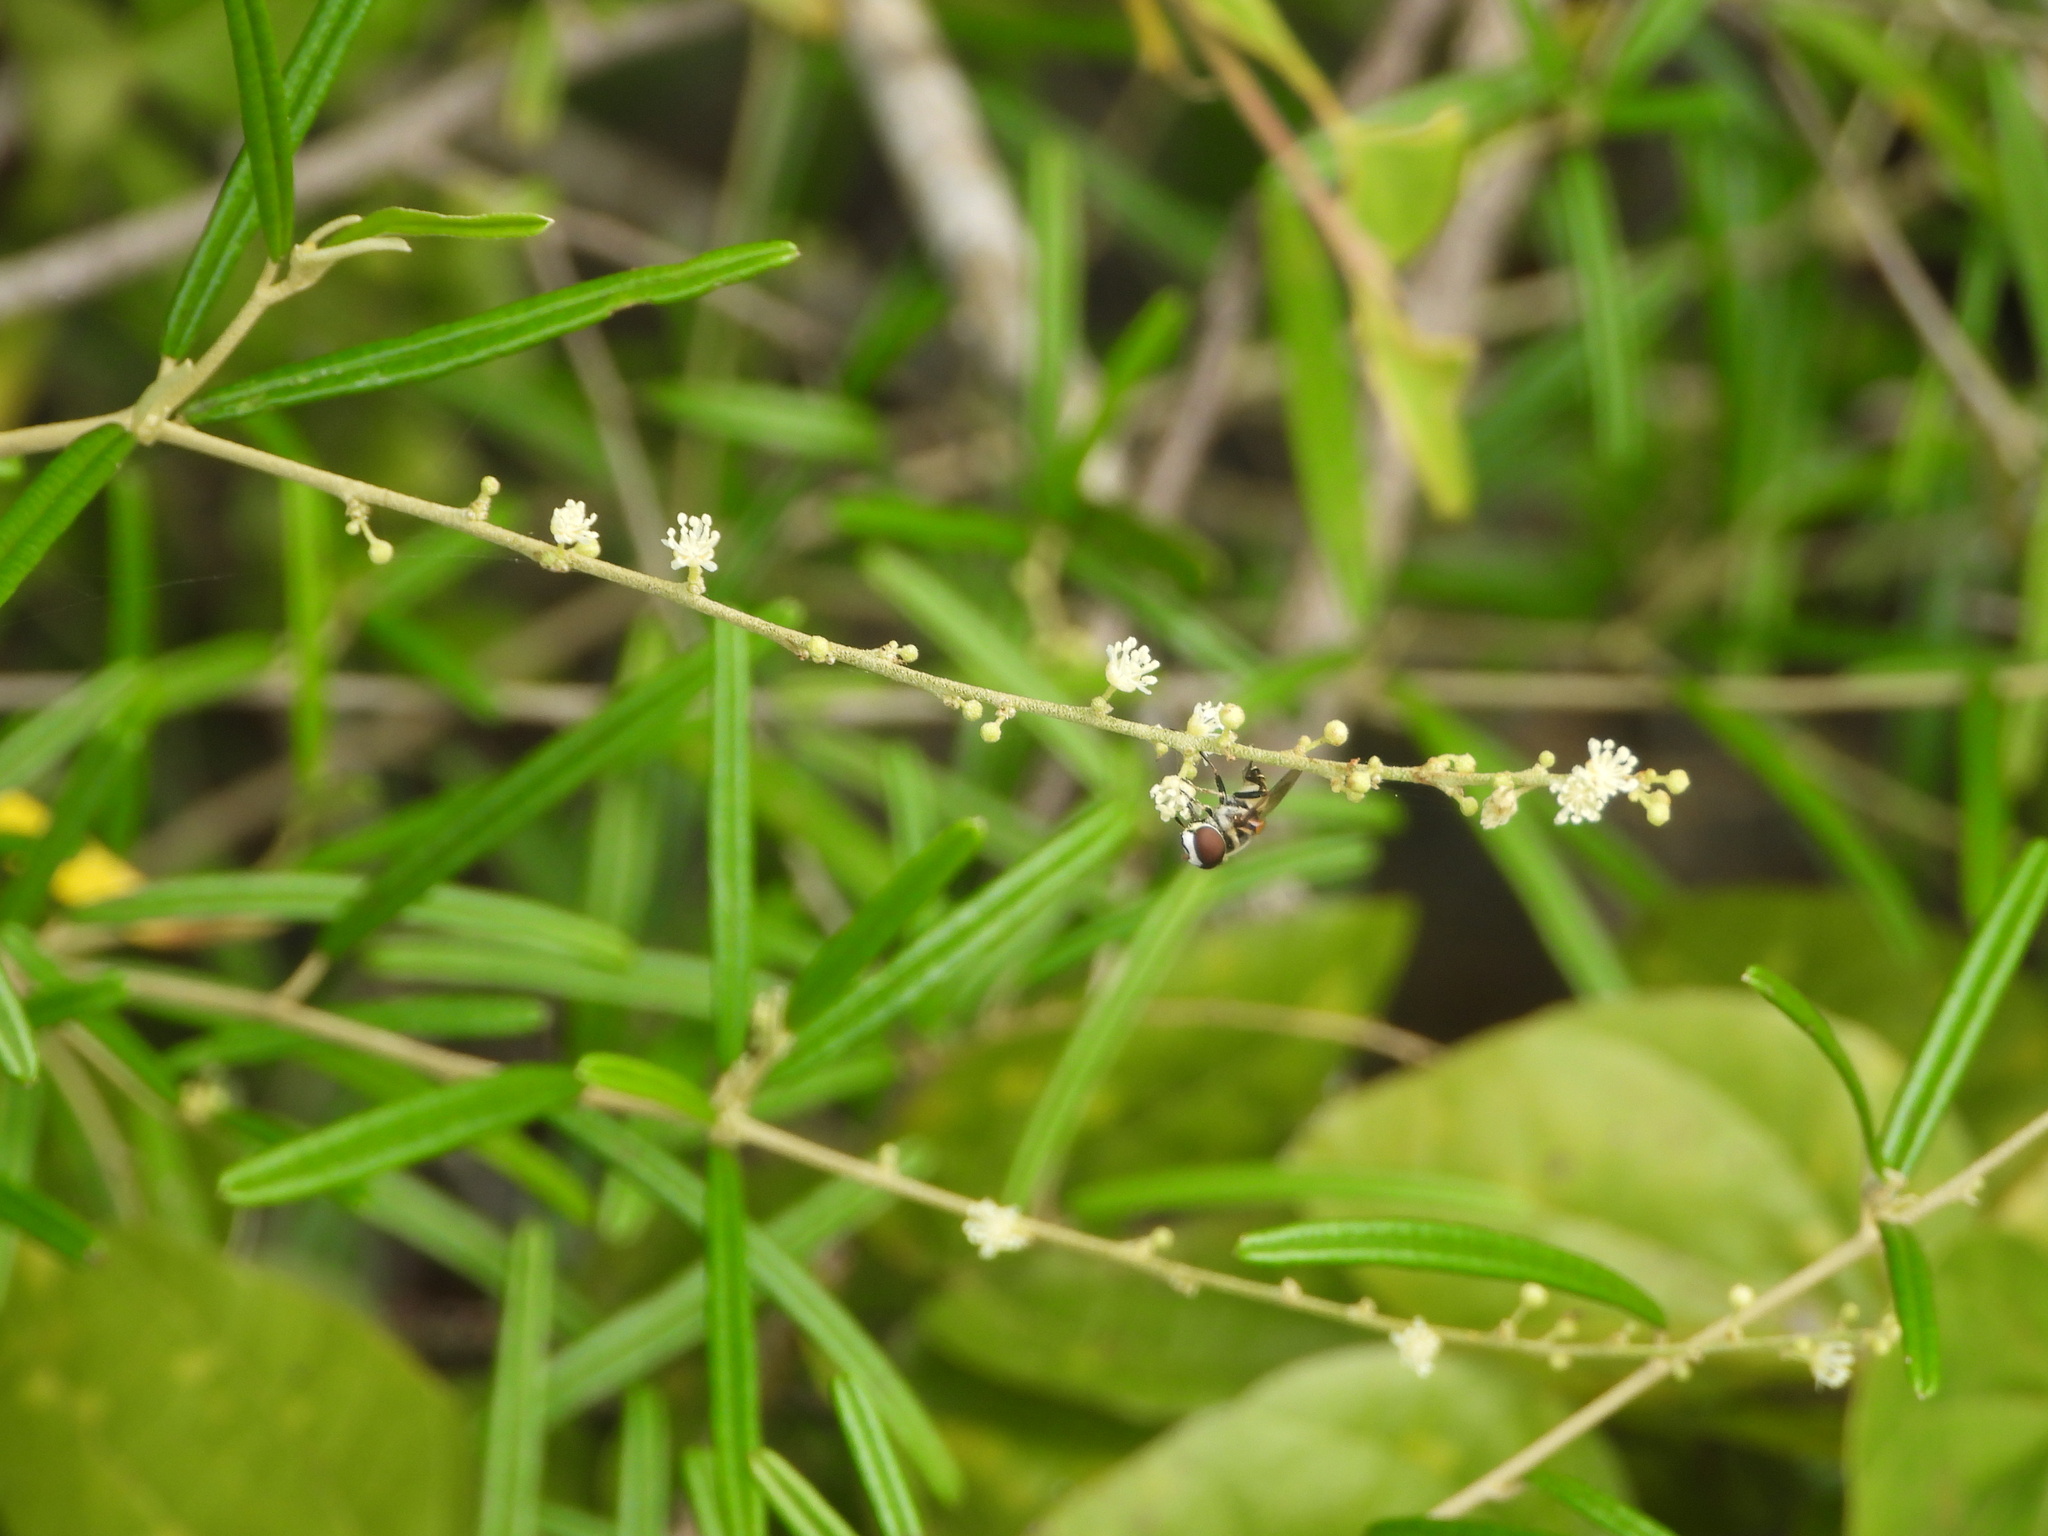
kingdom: Plantae
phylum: Tracheophyta
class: Magnoliopsida
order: Malpighiales
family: Euphorbiaceae
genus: Croton
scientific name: Croton linearis
